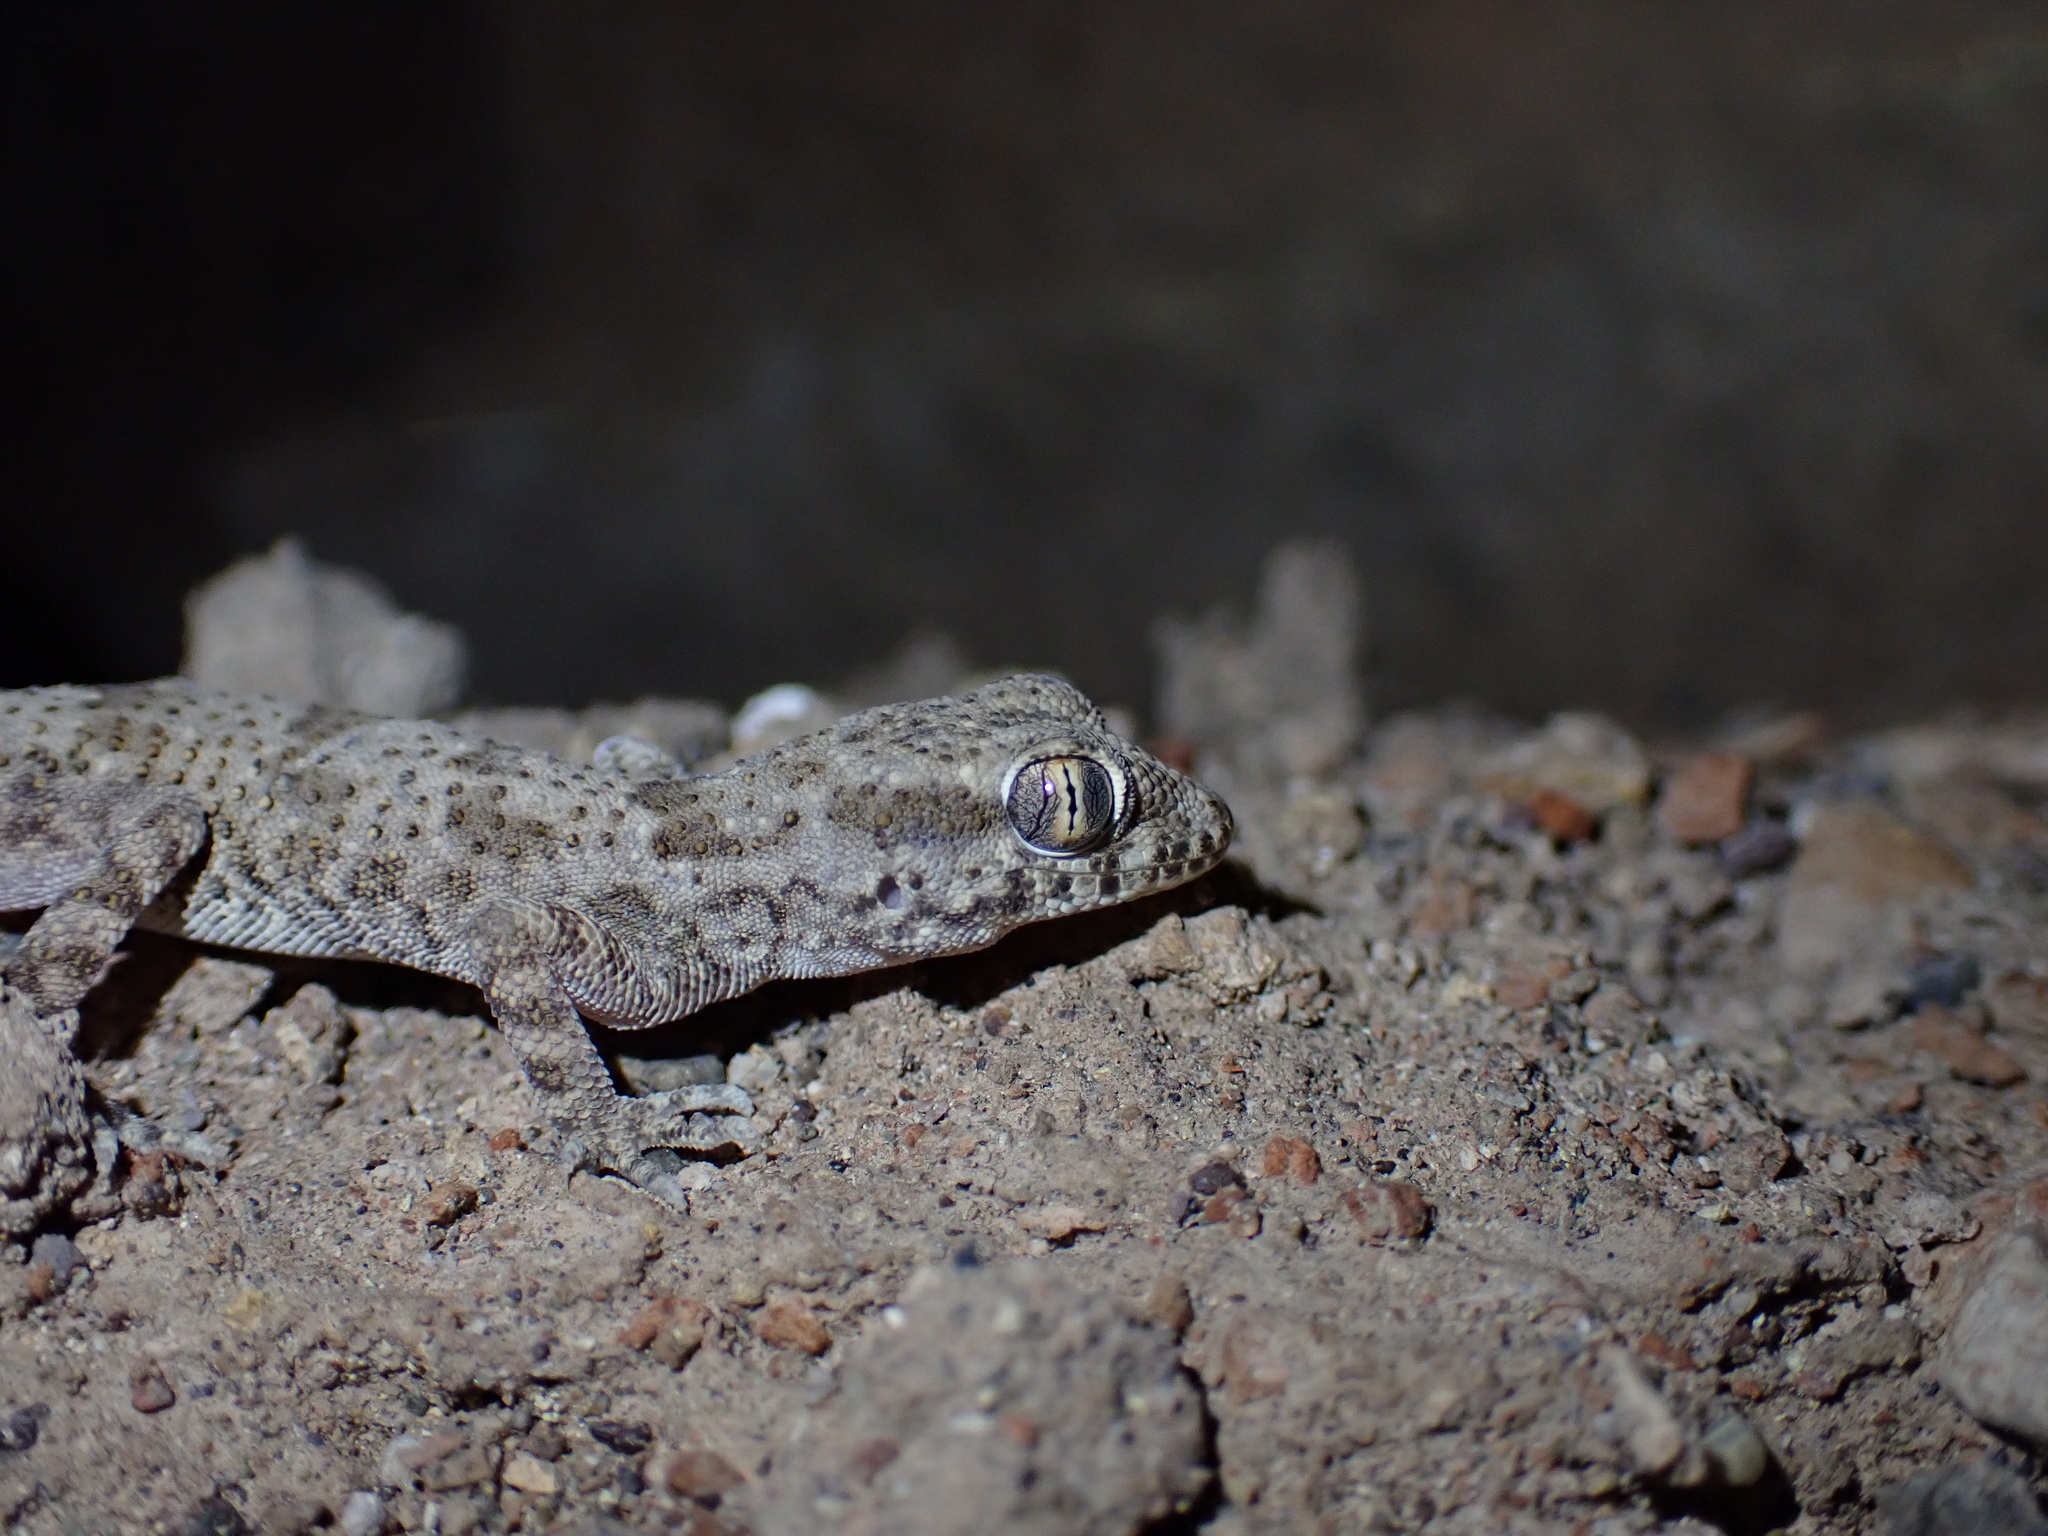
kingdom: Animalia
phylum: Chordata
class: Squamata
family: Gekkonidae
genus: Bunopus
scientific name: Bunopus crassicauda
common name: Thick-tailed tuberculated gecko
